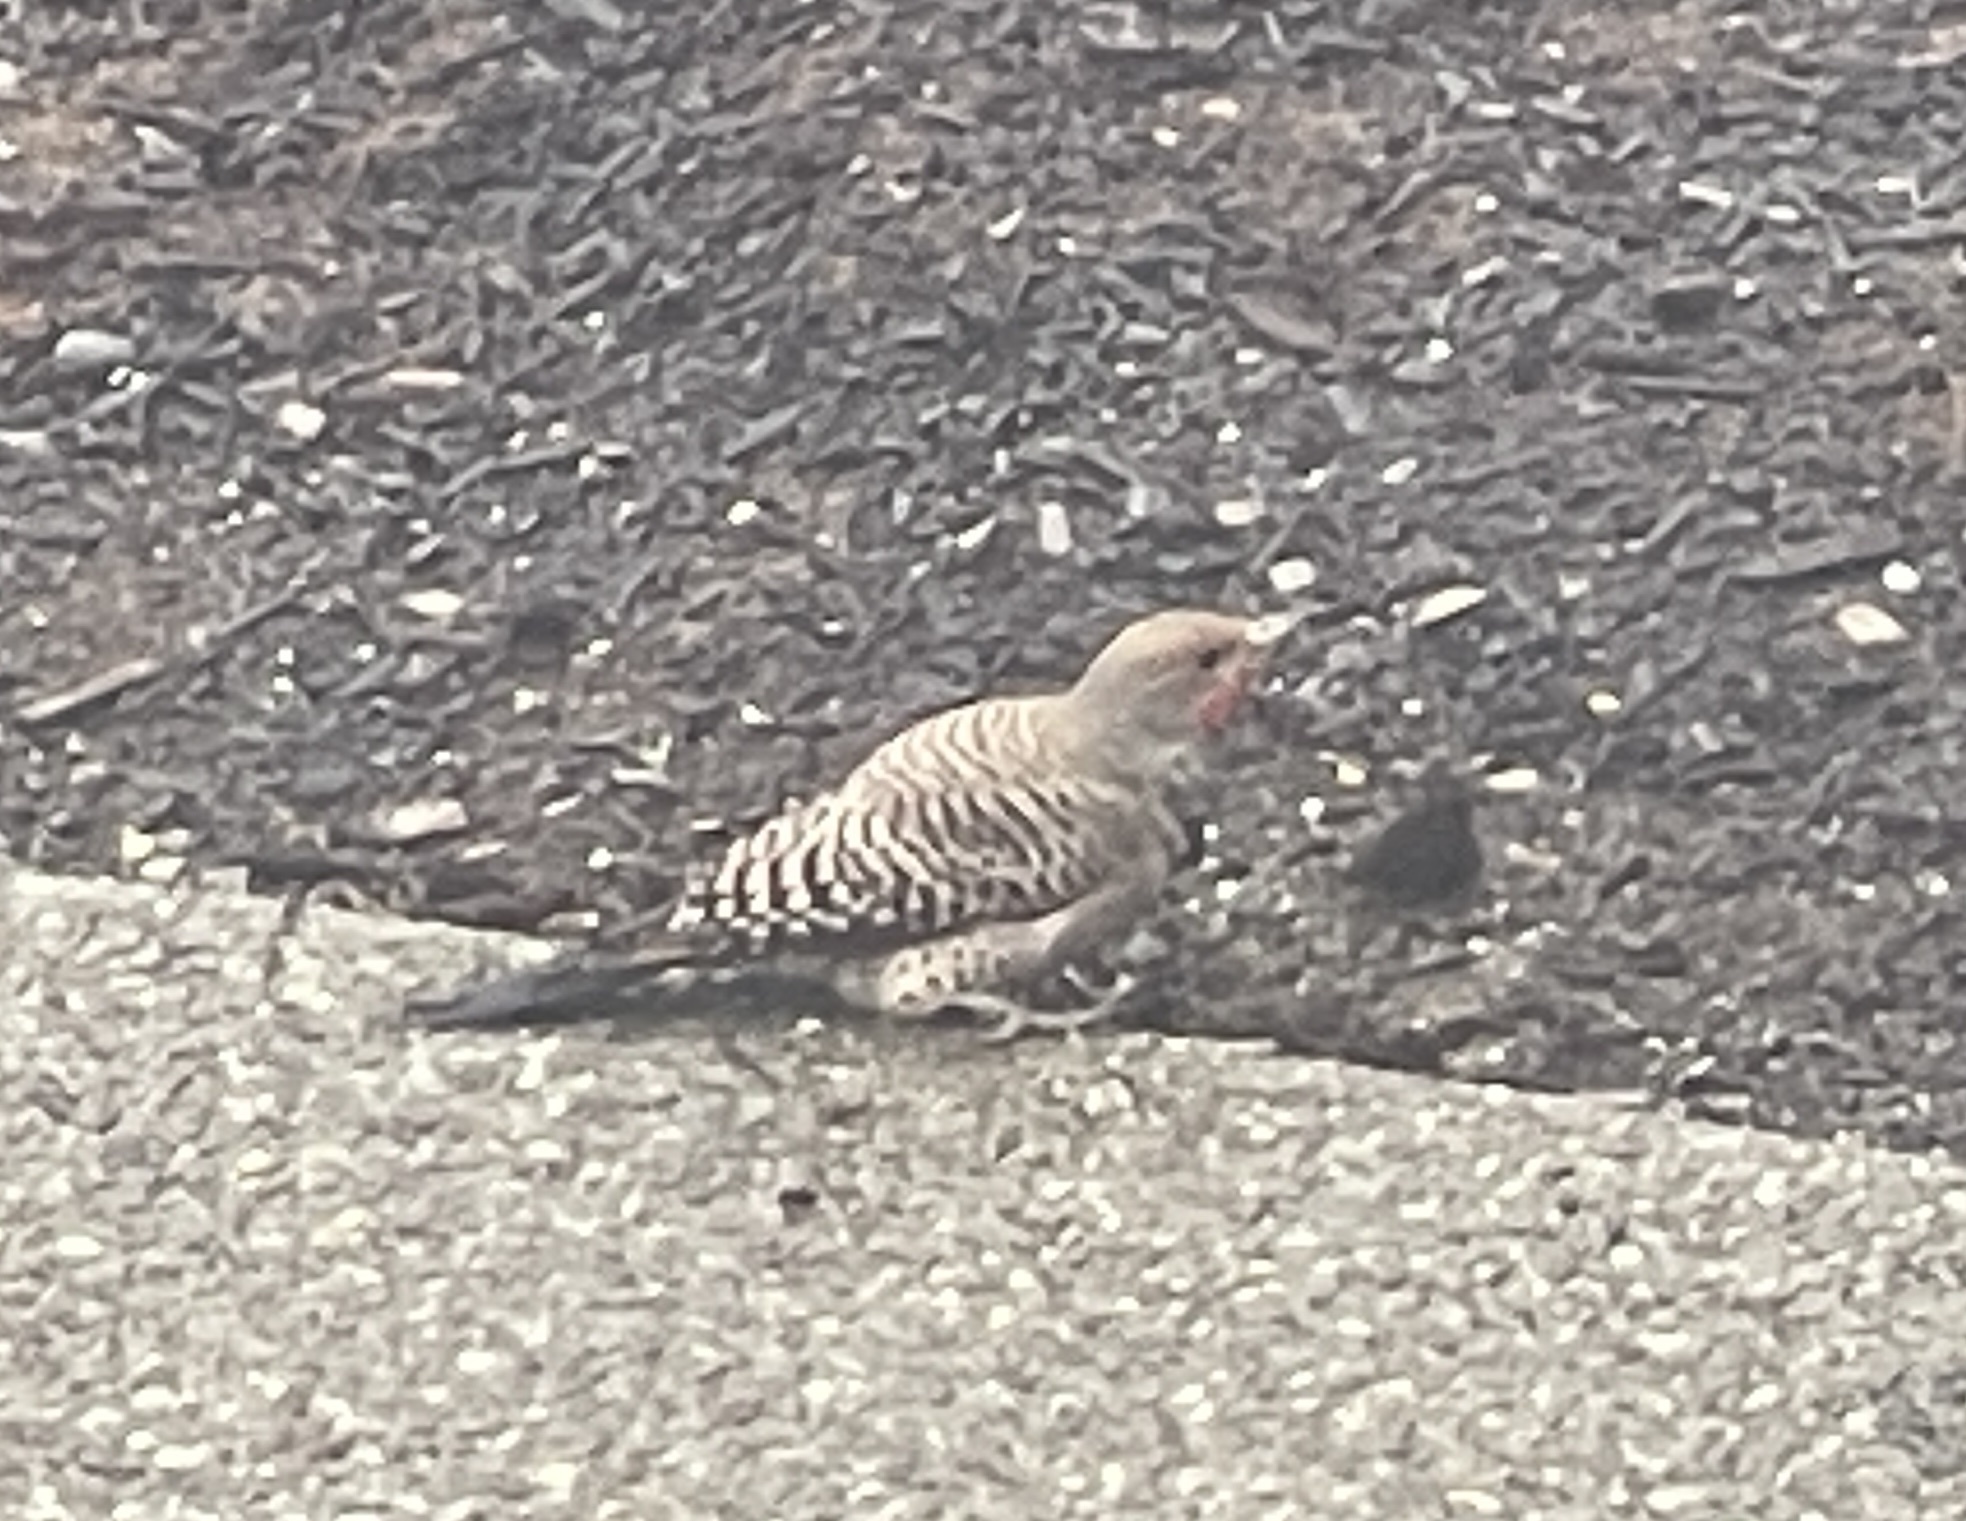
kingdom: Animalia
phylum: Chordata
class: Aves
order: Piciformes
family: Picidae
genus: Colaptes
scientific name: Colaptes auratus
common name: Northern flicker
